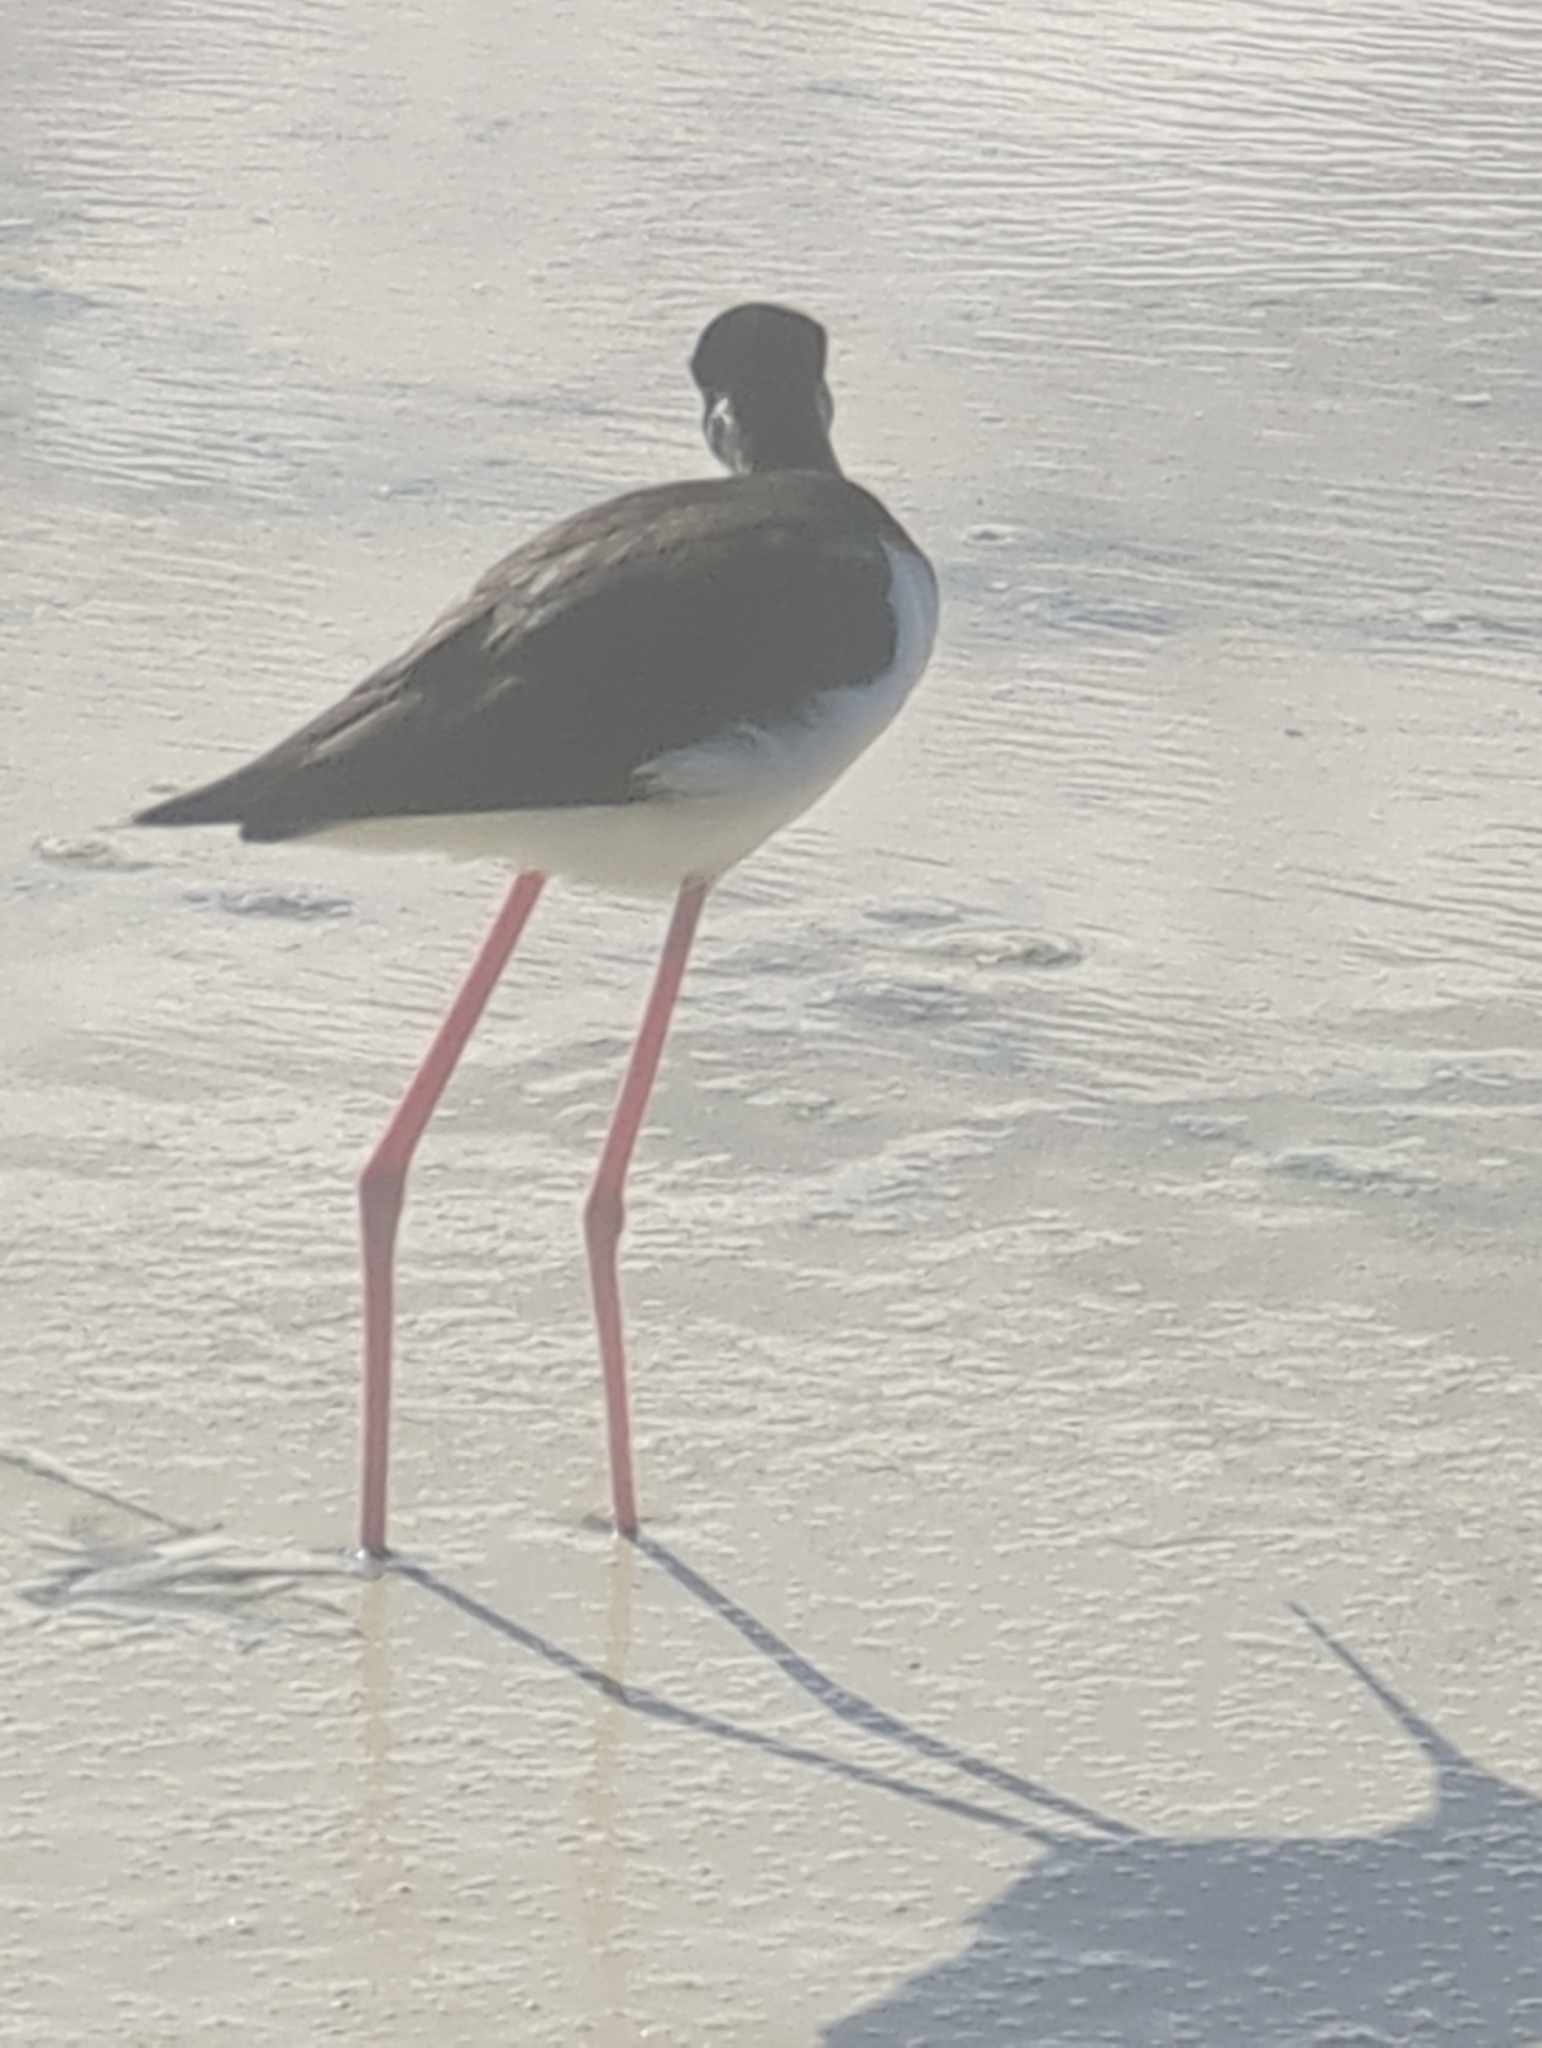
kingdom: Animalia
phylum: Chordata
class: Aves
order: Charadriiformes
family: Recurvirostridae
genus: Himantopus
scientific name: Himantopus mexicanus
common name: Black-necked stilt
